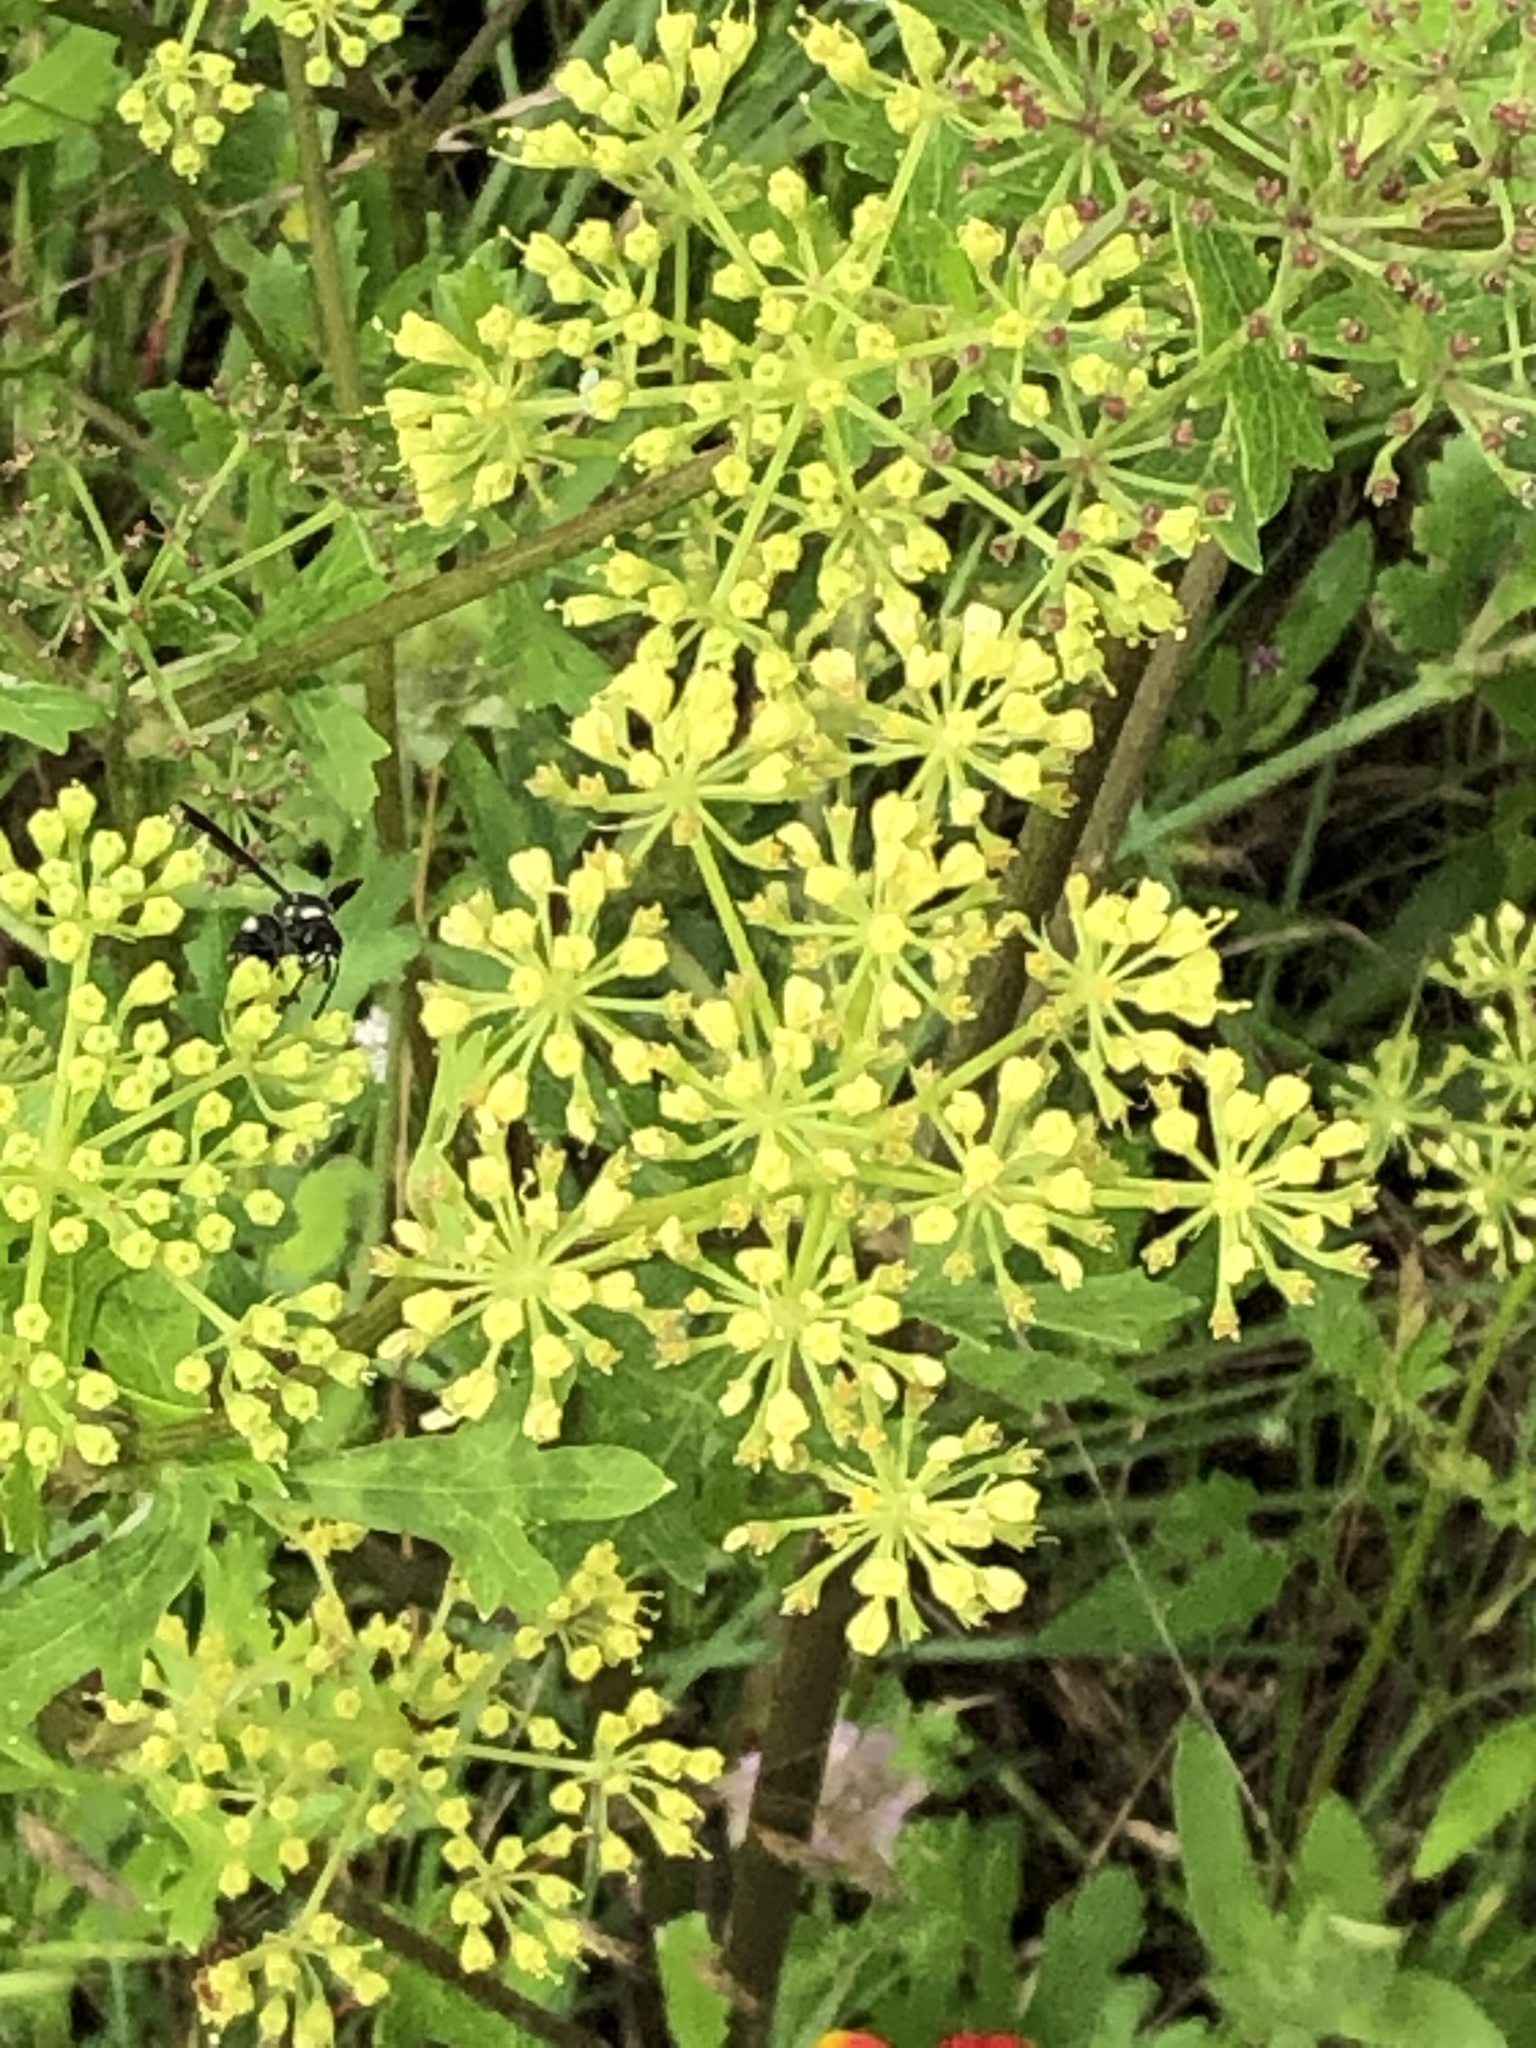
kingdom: Plantae
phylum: Tracheophyta
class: Magnoliopsida
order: Apiales
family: Apiaceae
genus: Polytaenia
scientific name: Polytaenia texana
